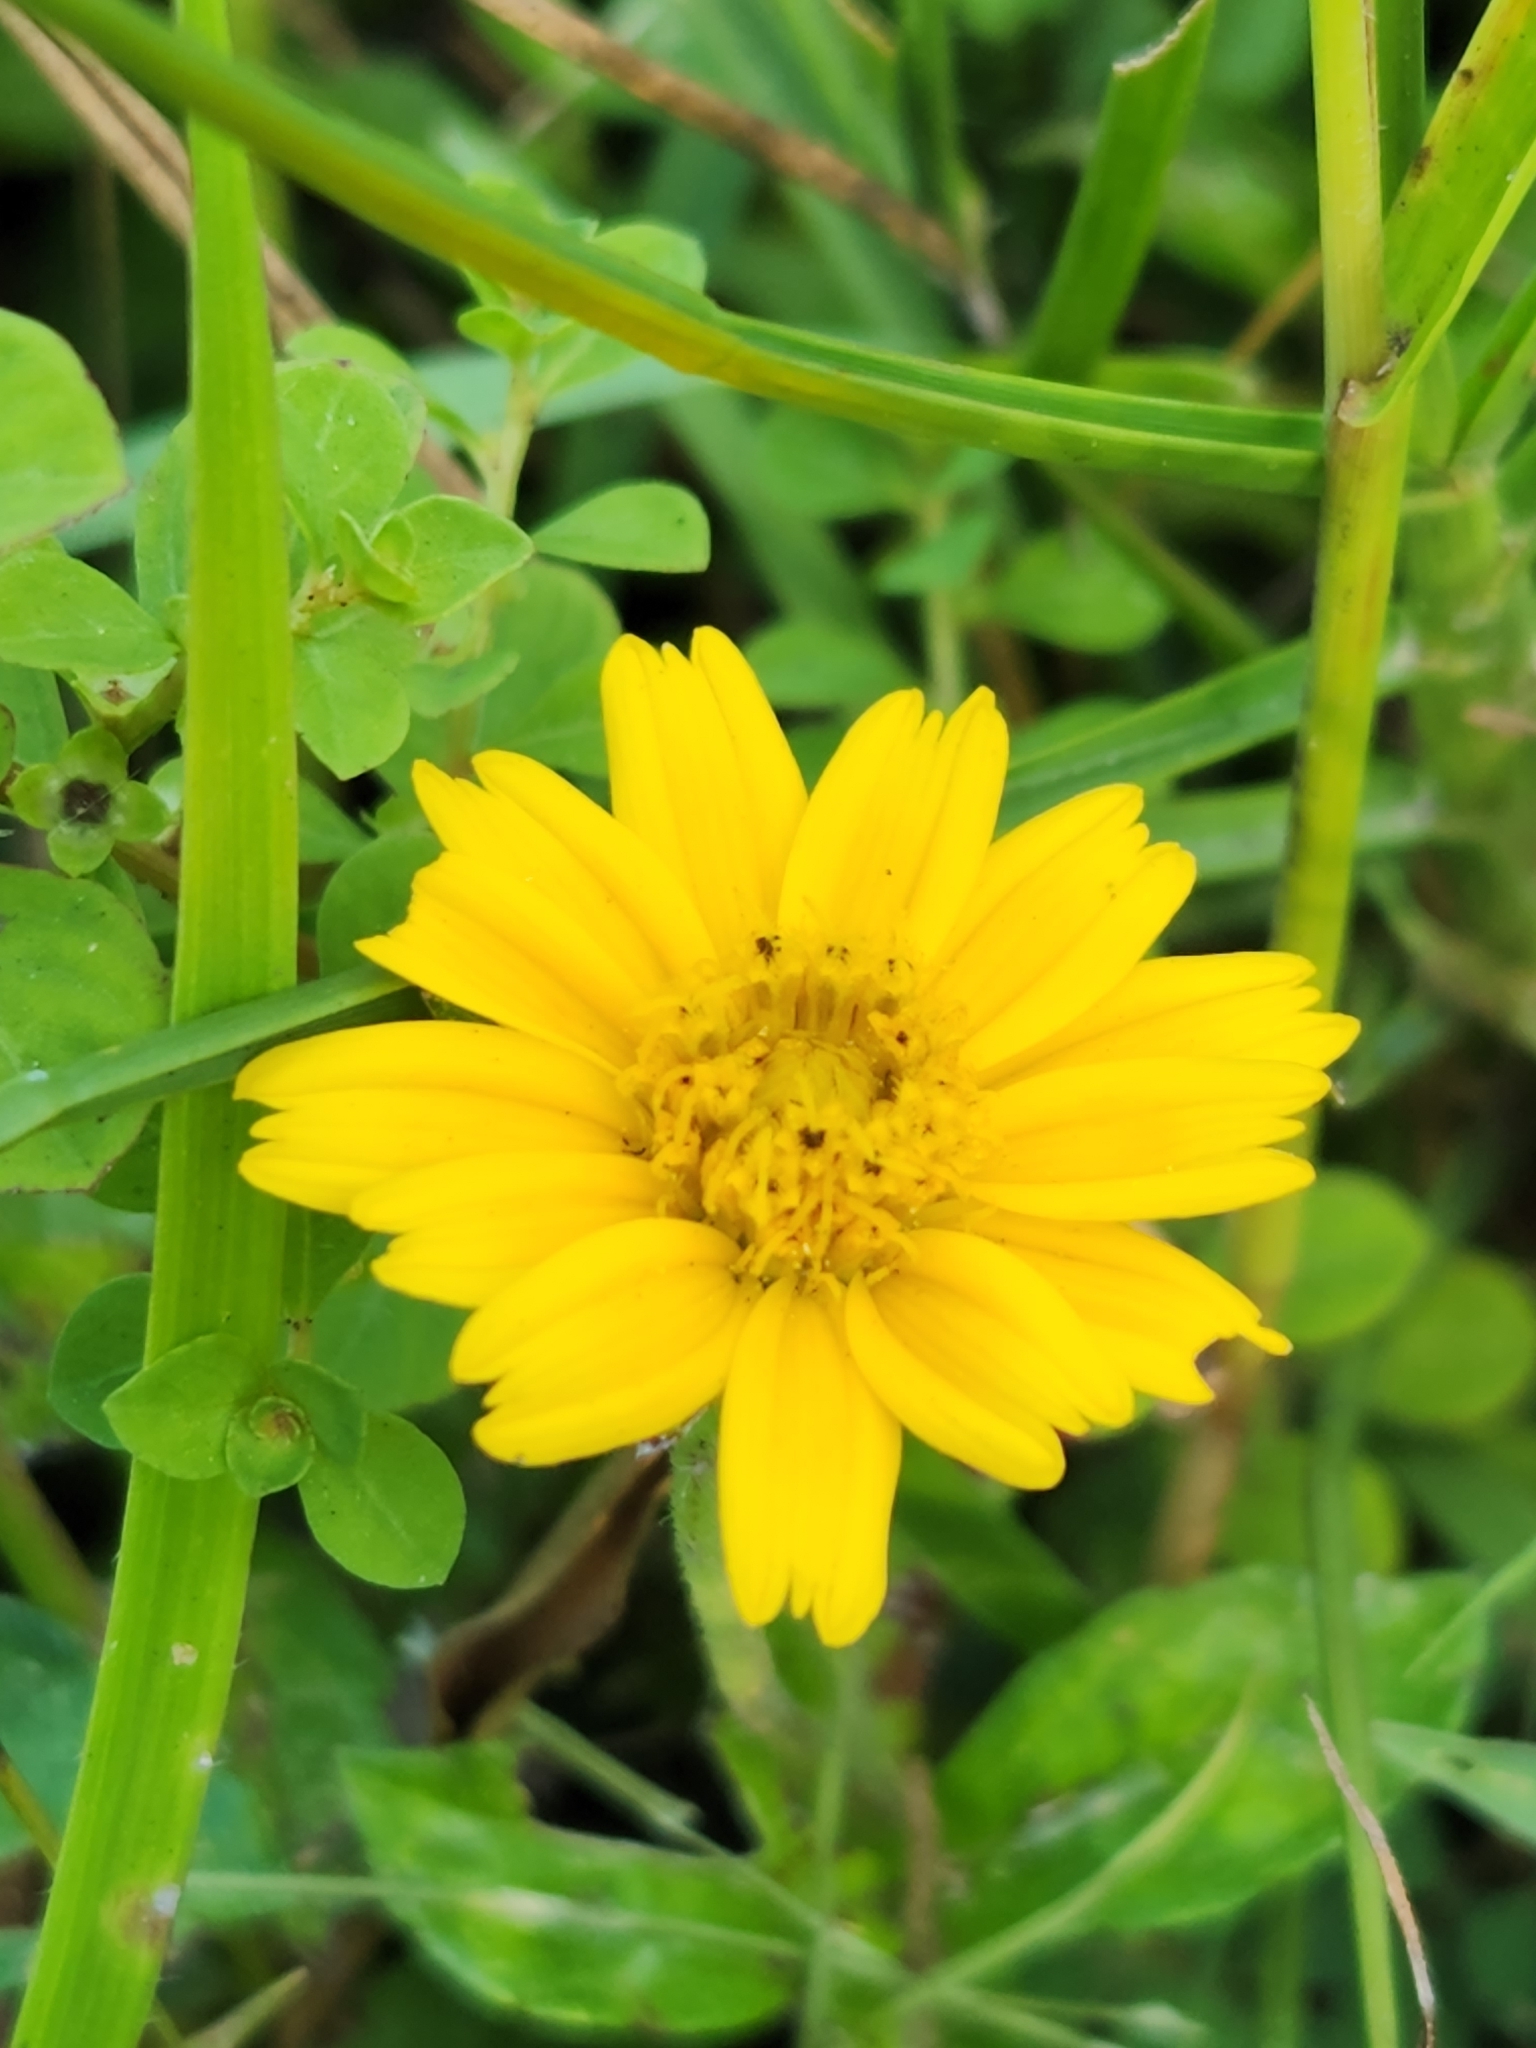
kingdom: Plantae
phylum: Tracheophyta
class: Magnoliopsida
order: Asterales
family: Asteraceae
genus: Sphagneticola
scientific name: Sphagneticola trilobata
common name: Bay biscayne creeping-oxeye
